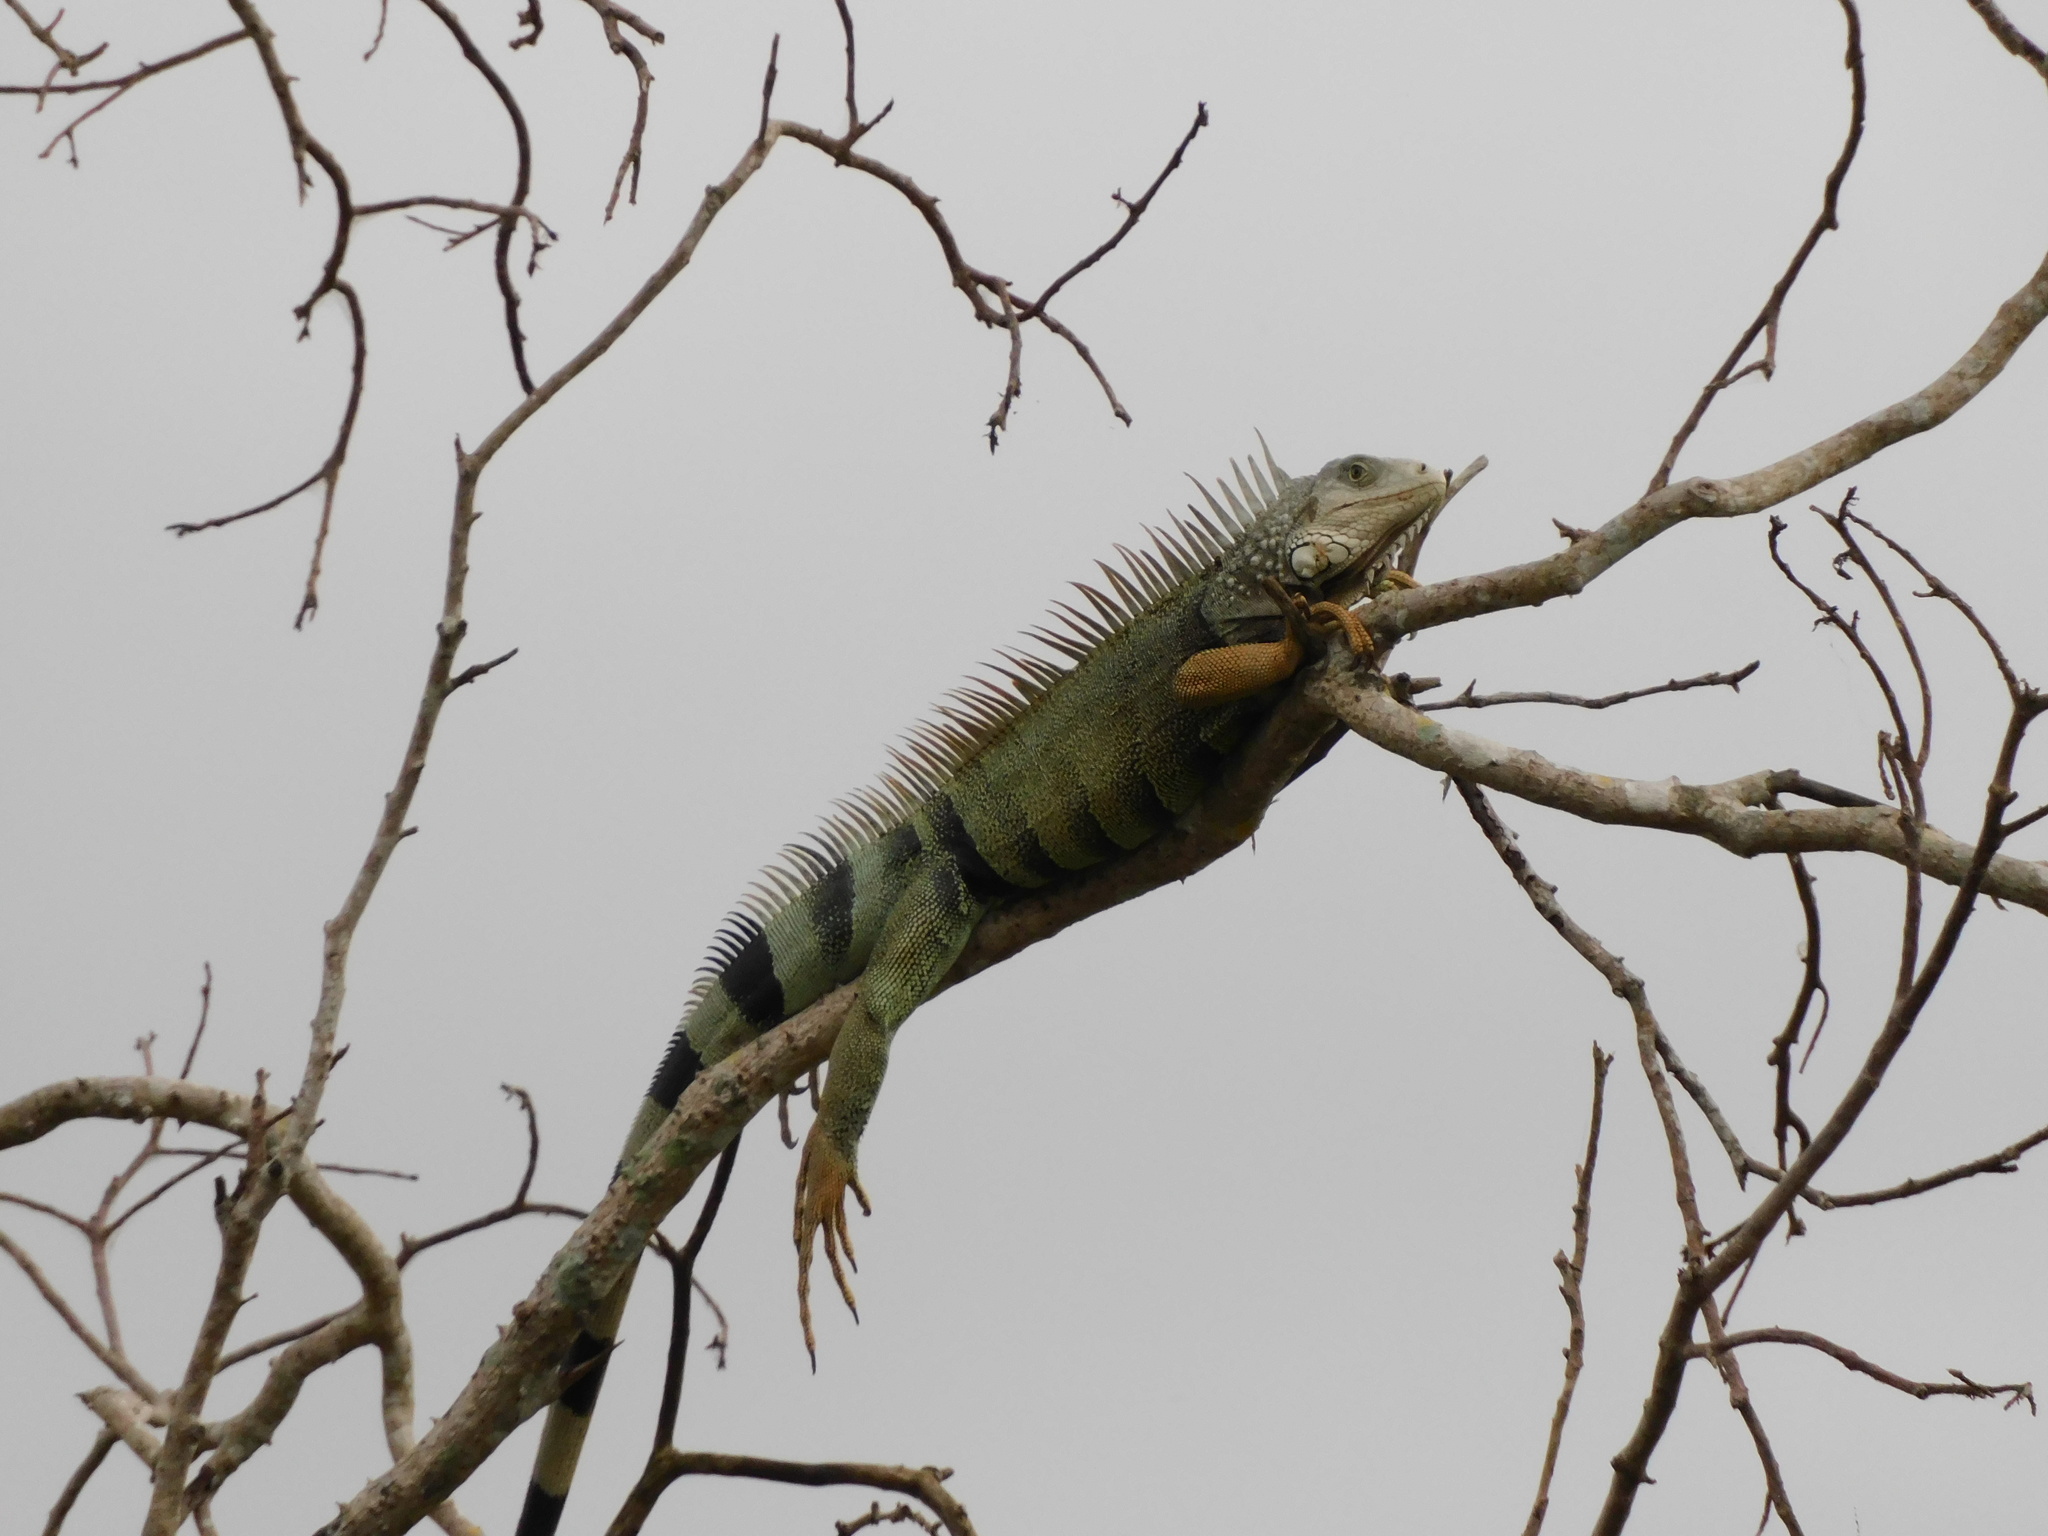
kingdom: Animalia
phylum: Chordata
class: Squamata
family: Iguanidae
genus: Iguana
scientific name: Iguana iguana
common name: Green iguana
